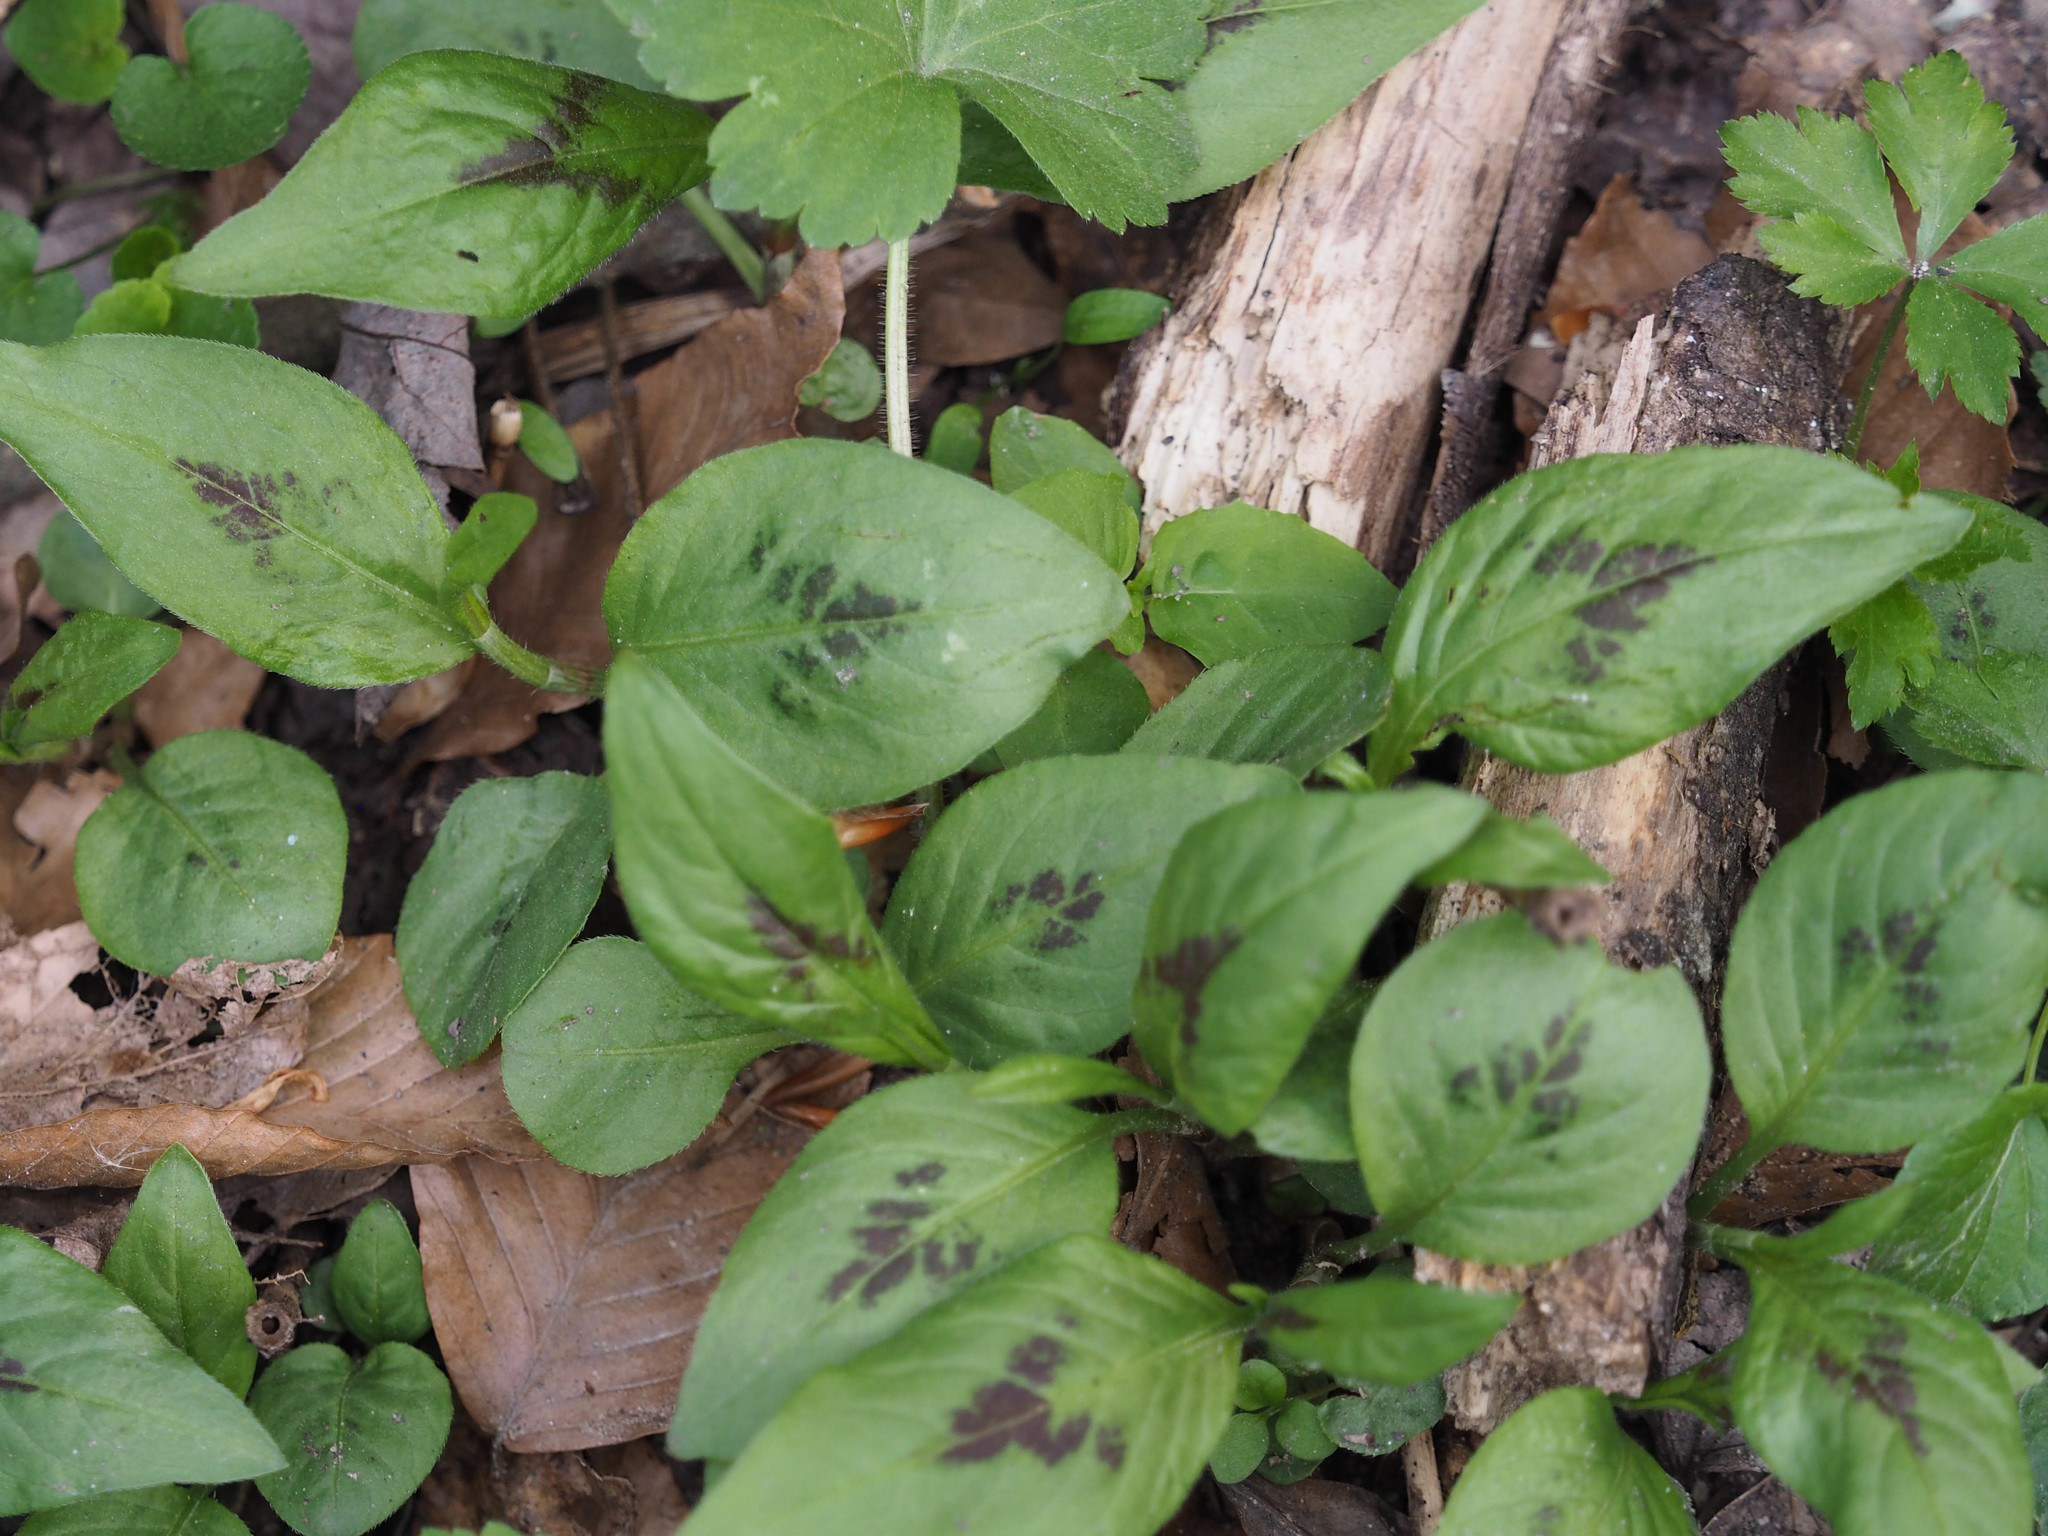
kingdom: Plantae
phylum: Tracheophyta
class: Magnoliopsida
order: Caryophyllales
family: Polygonaceae
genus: Persicaria
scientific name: Persicaria virginiana
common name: Jumpseed
